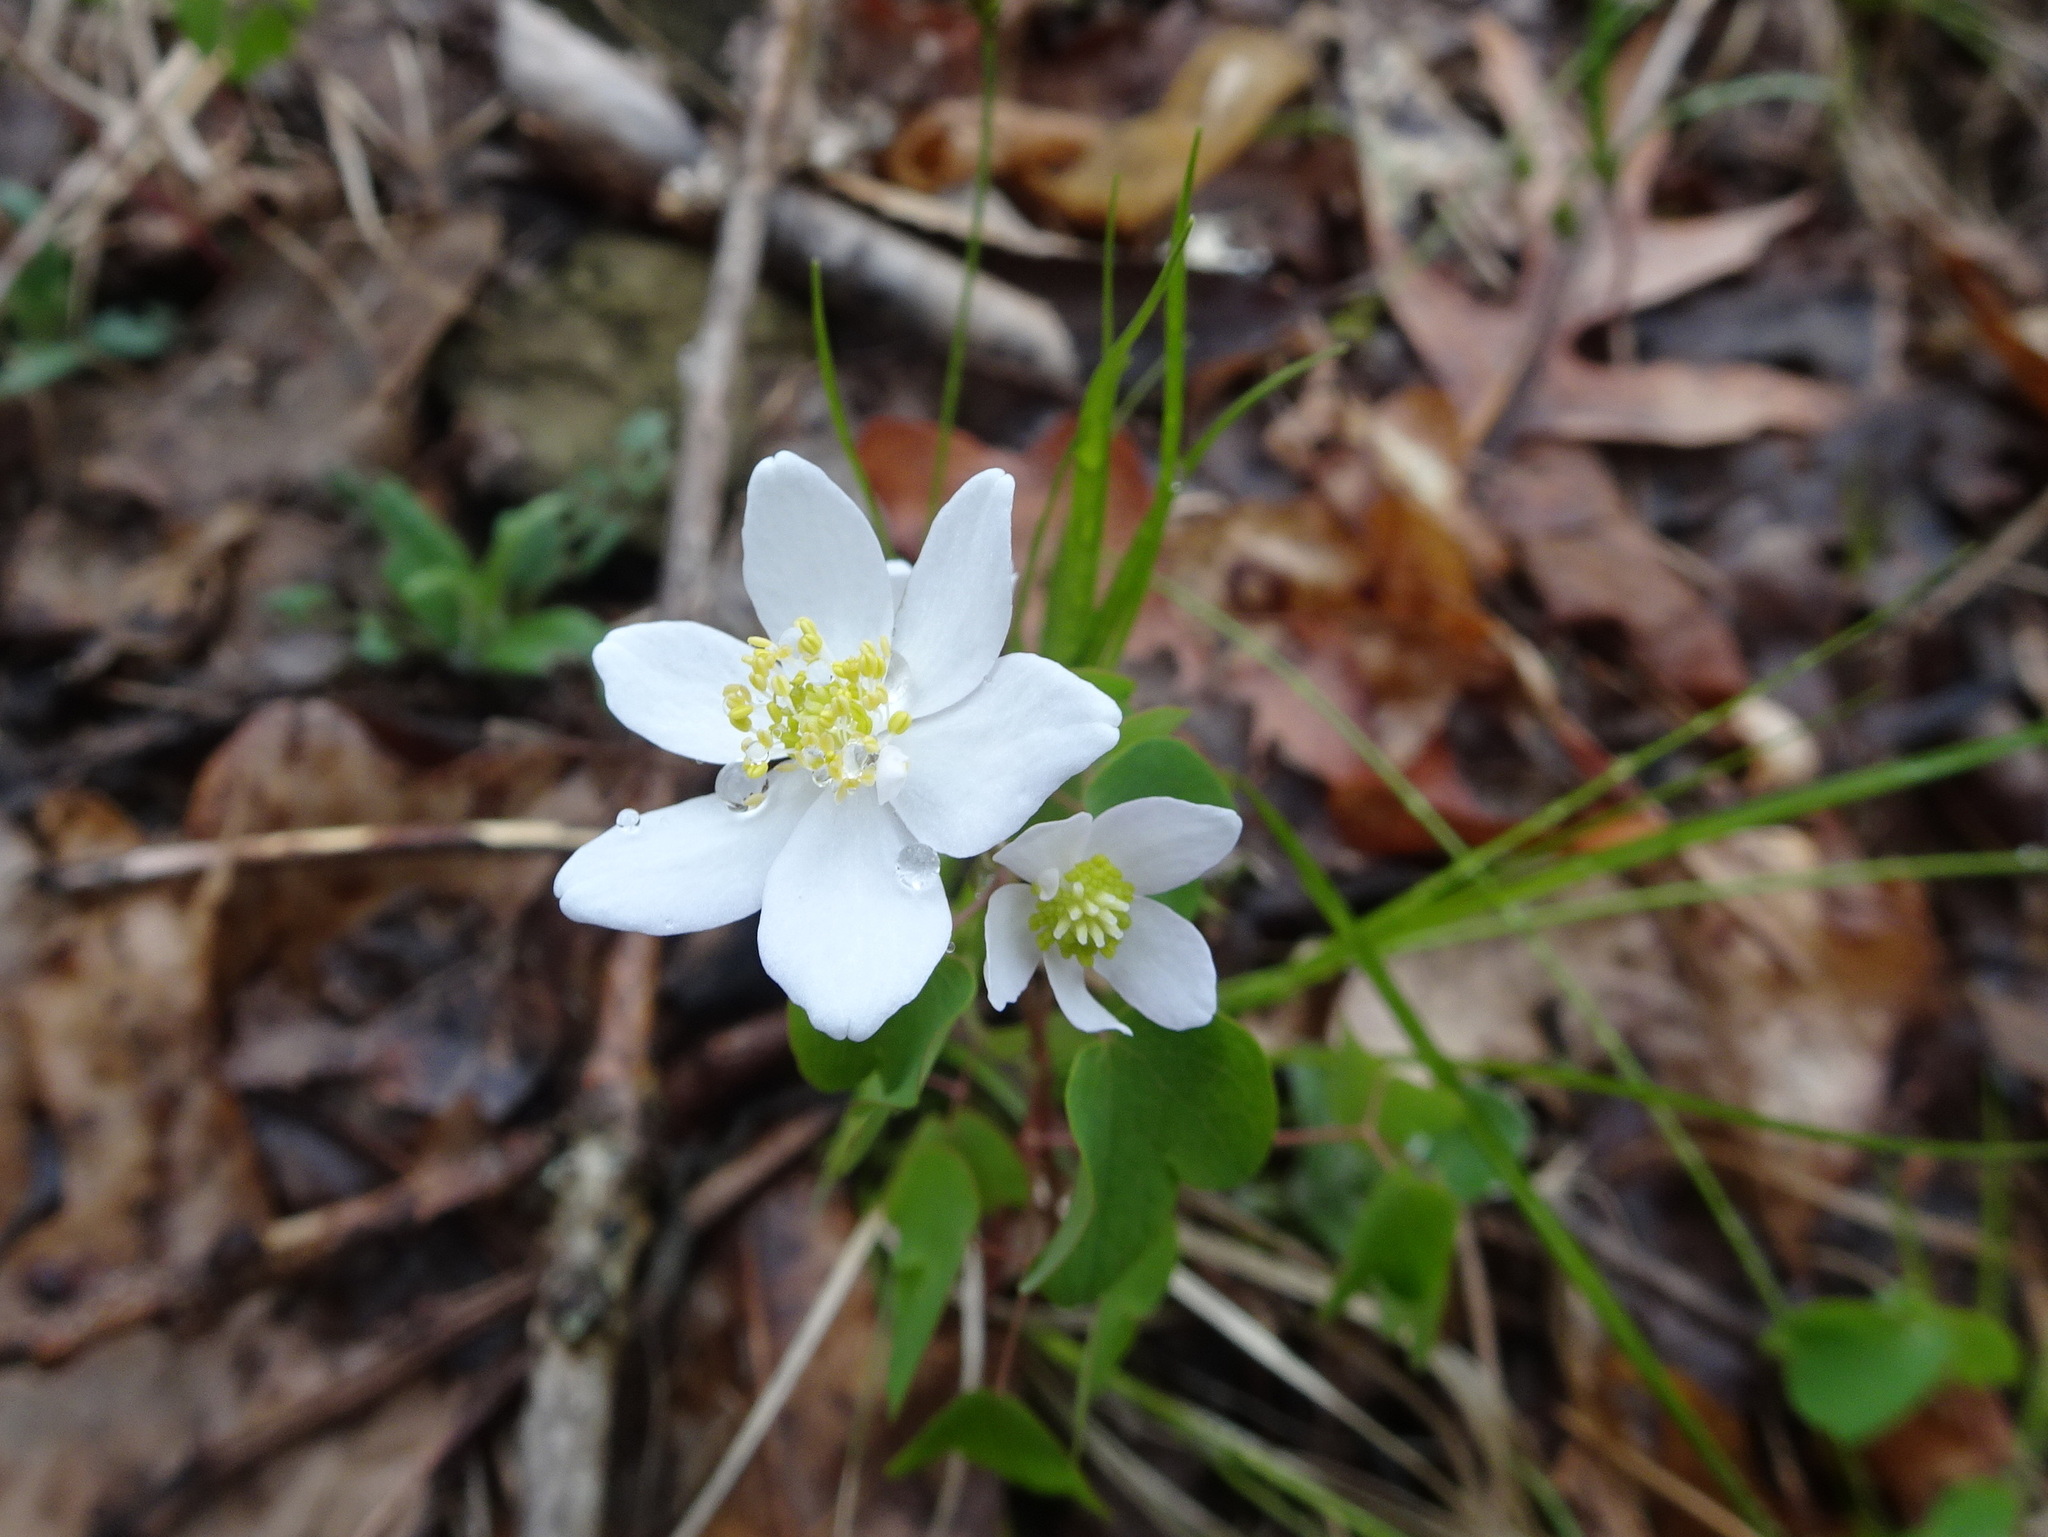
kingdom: Plantae
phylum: Tracheophyta
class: Magnoliopsida
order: Ranunculales
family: Ranunculaceae
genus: Thalictrum
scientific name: Thalictrum thalictroides
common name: Rue-anemone
